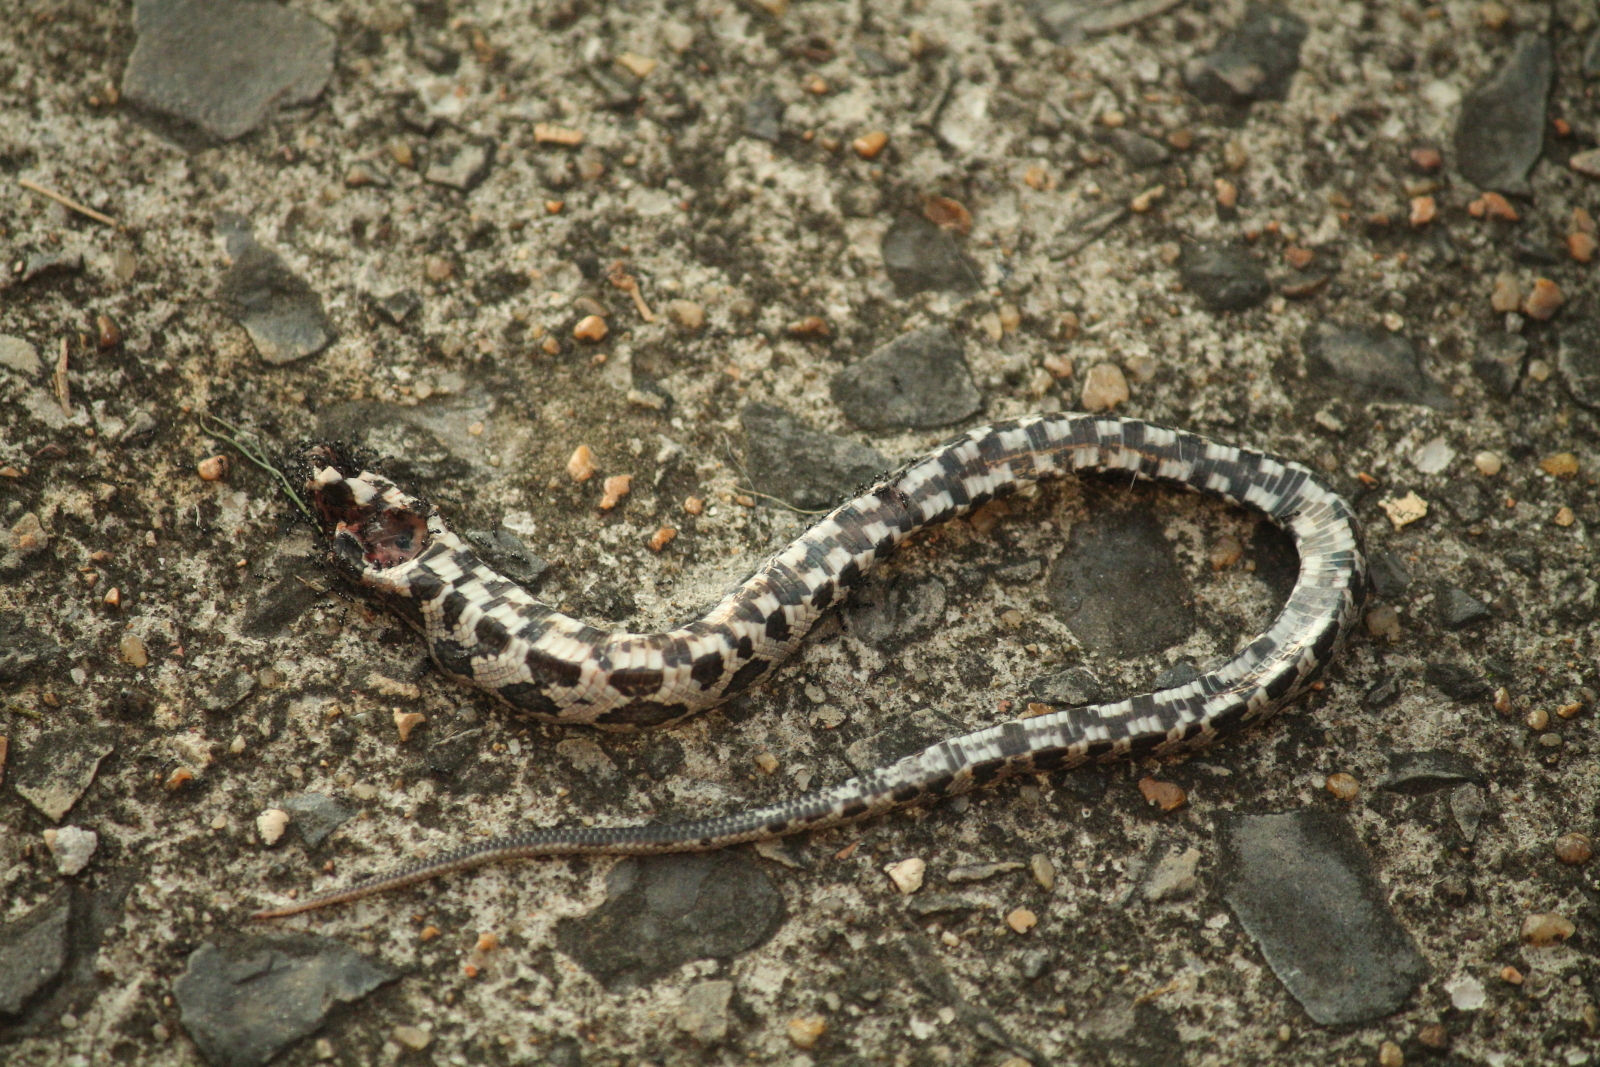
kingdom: Animalia
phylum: Chordata
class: Squamata
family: Colubridae
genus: Pantherophis
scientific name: Pantherophis obsoletus
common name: Black rat snake
